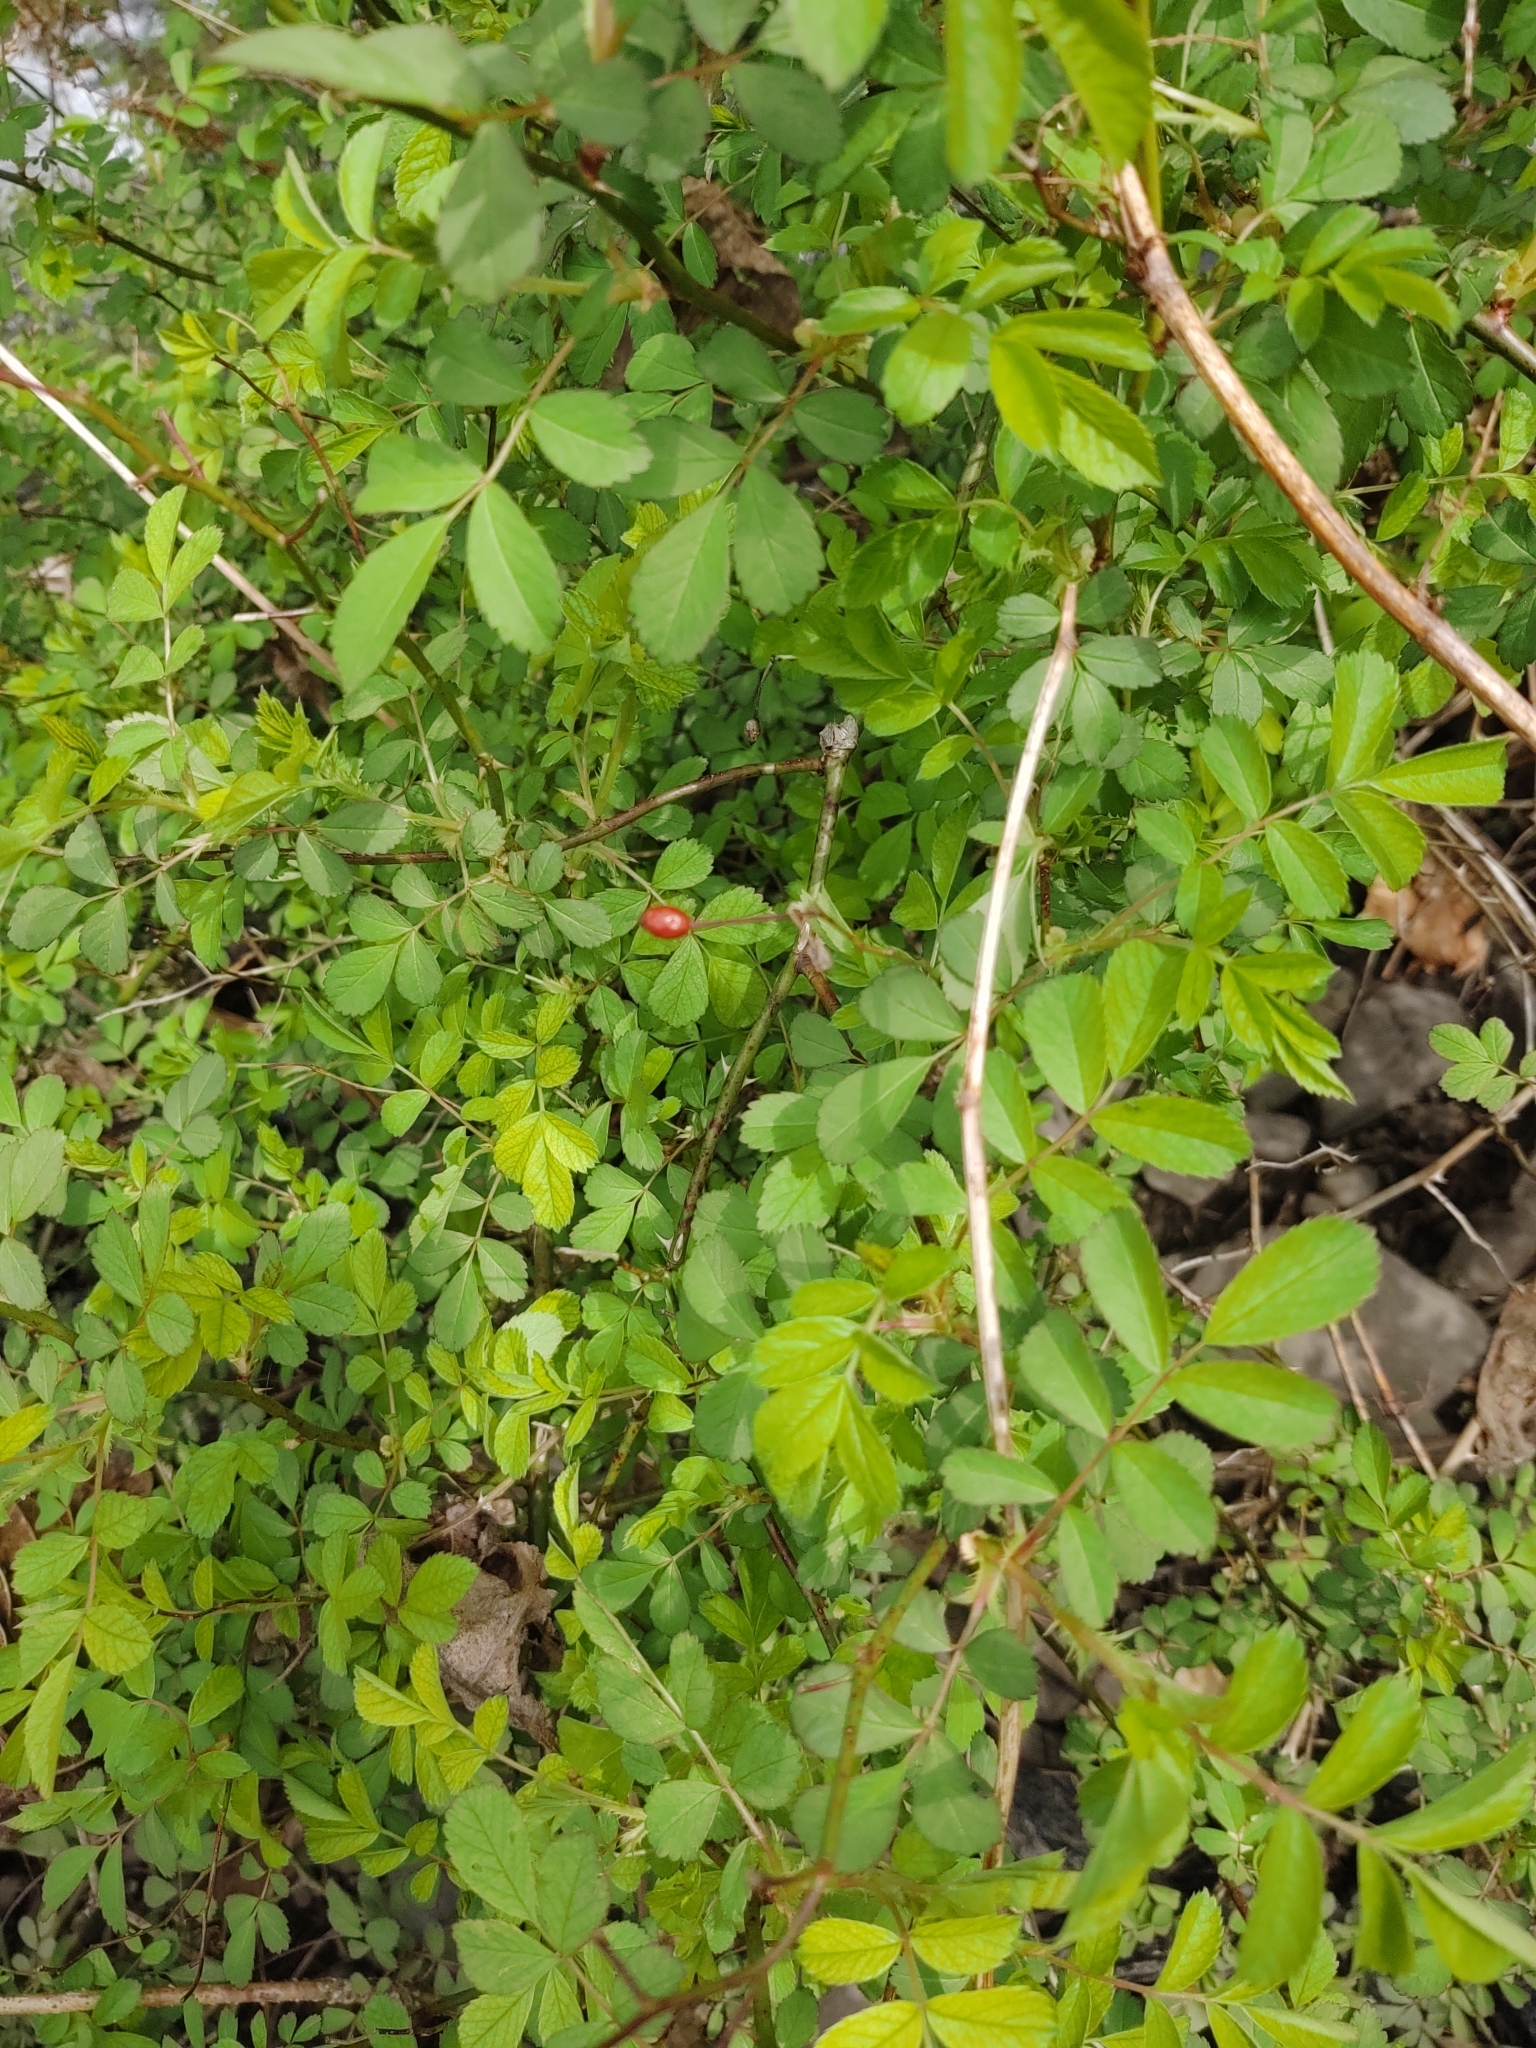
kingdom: Plantae
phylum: Tracheophyta
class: Magnoliopsida
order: Rosales
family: Rosaceae
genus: Rosa
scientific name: Rosa multiflora
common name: Multiflora rose
